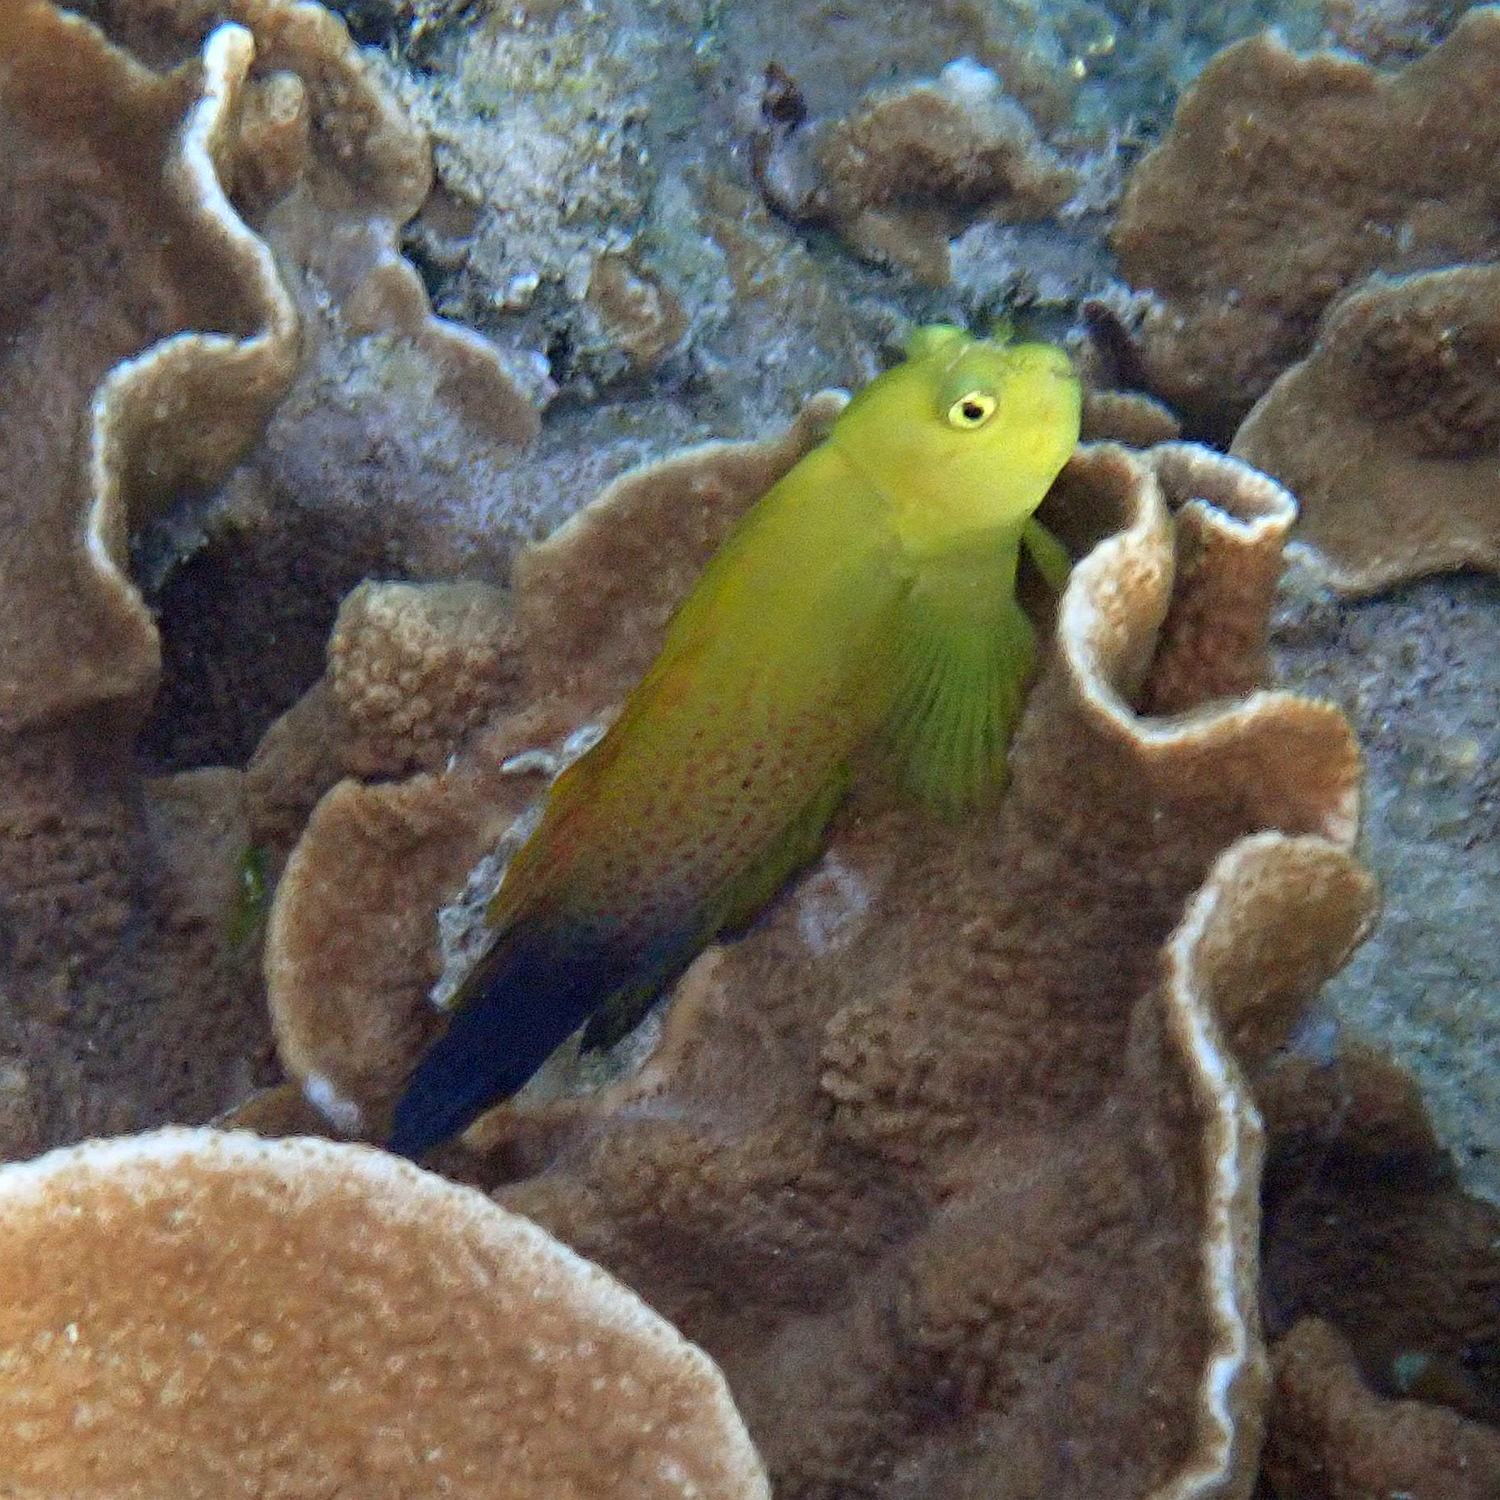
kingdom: Animalia
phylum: Chordata
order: Perciformes
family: Blenniidae
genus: Cirripectes
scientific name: Cirripectes chelomatus
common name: Lady musgrave blenny
